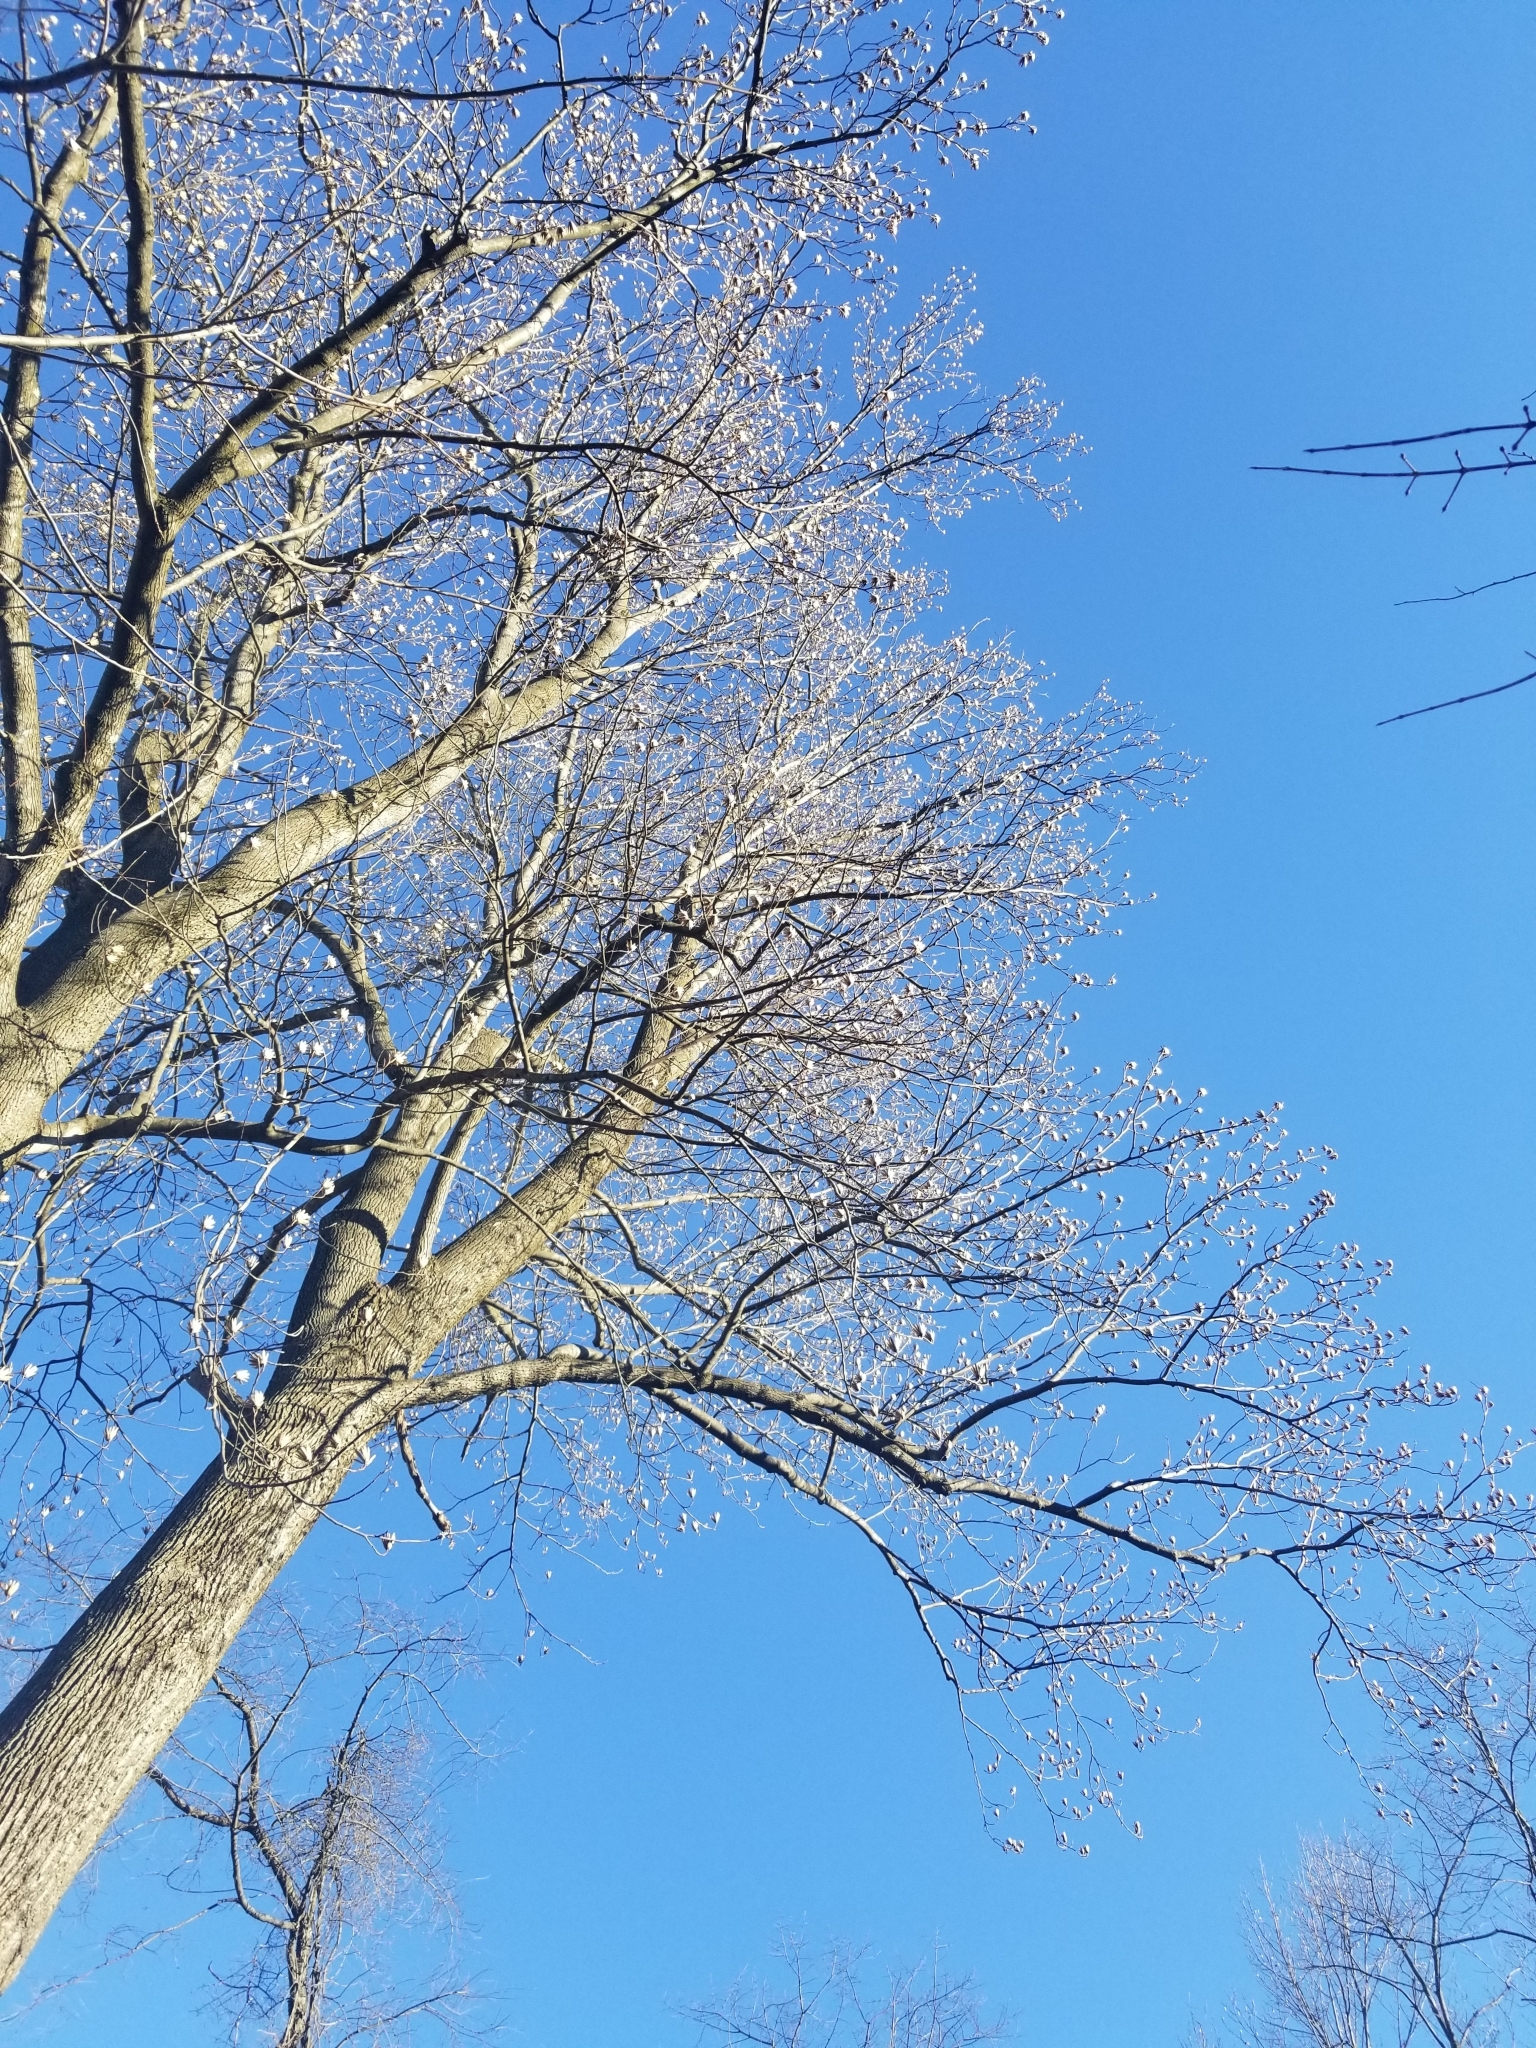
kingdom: Plantae
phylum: Tracheophyta
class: Magnoliopsida
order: Magnoliales
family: Magnoliaceae
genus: Liriodendron
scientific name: Liriodendron tulipifera
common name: Tulip tree
